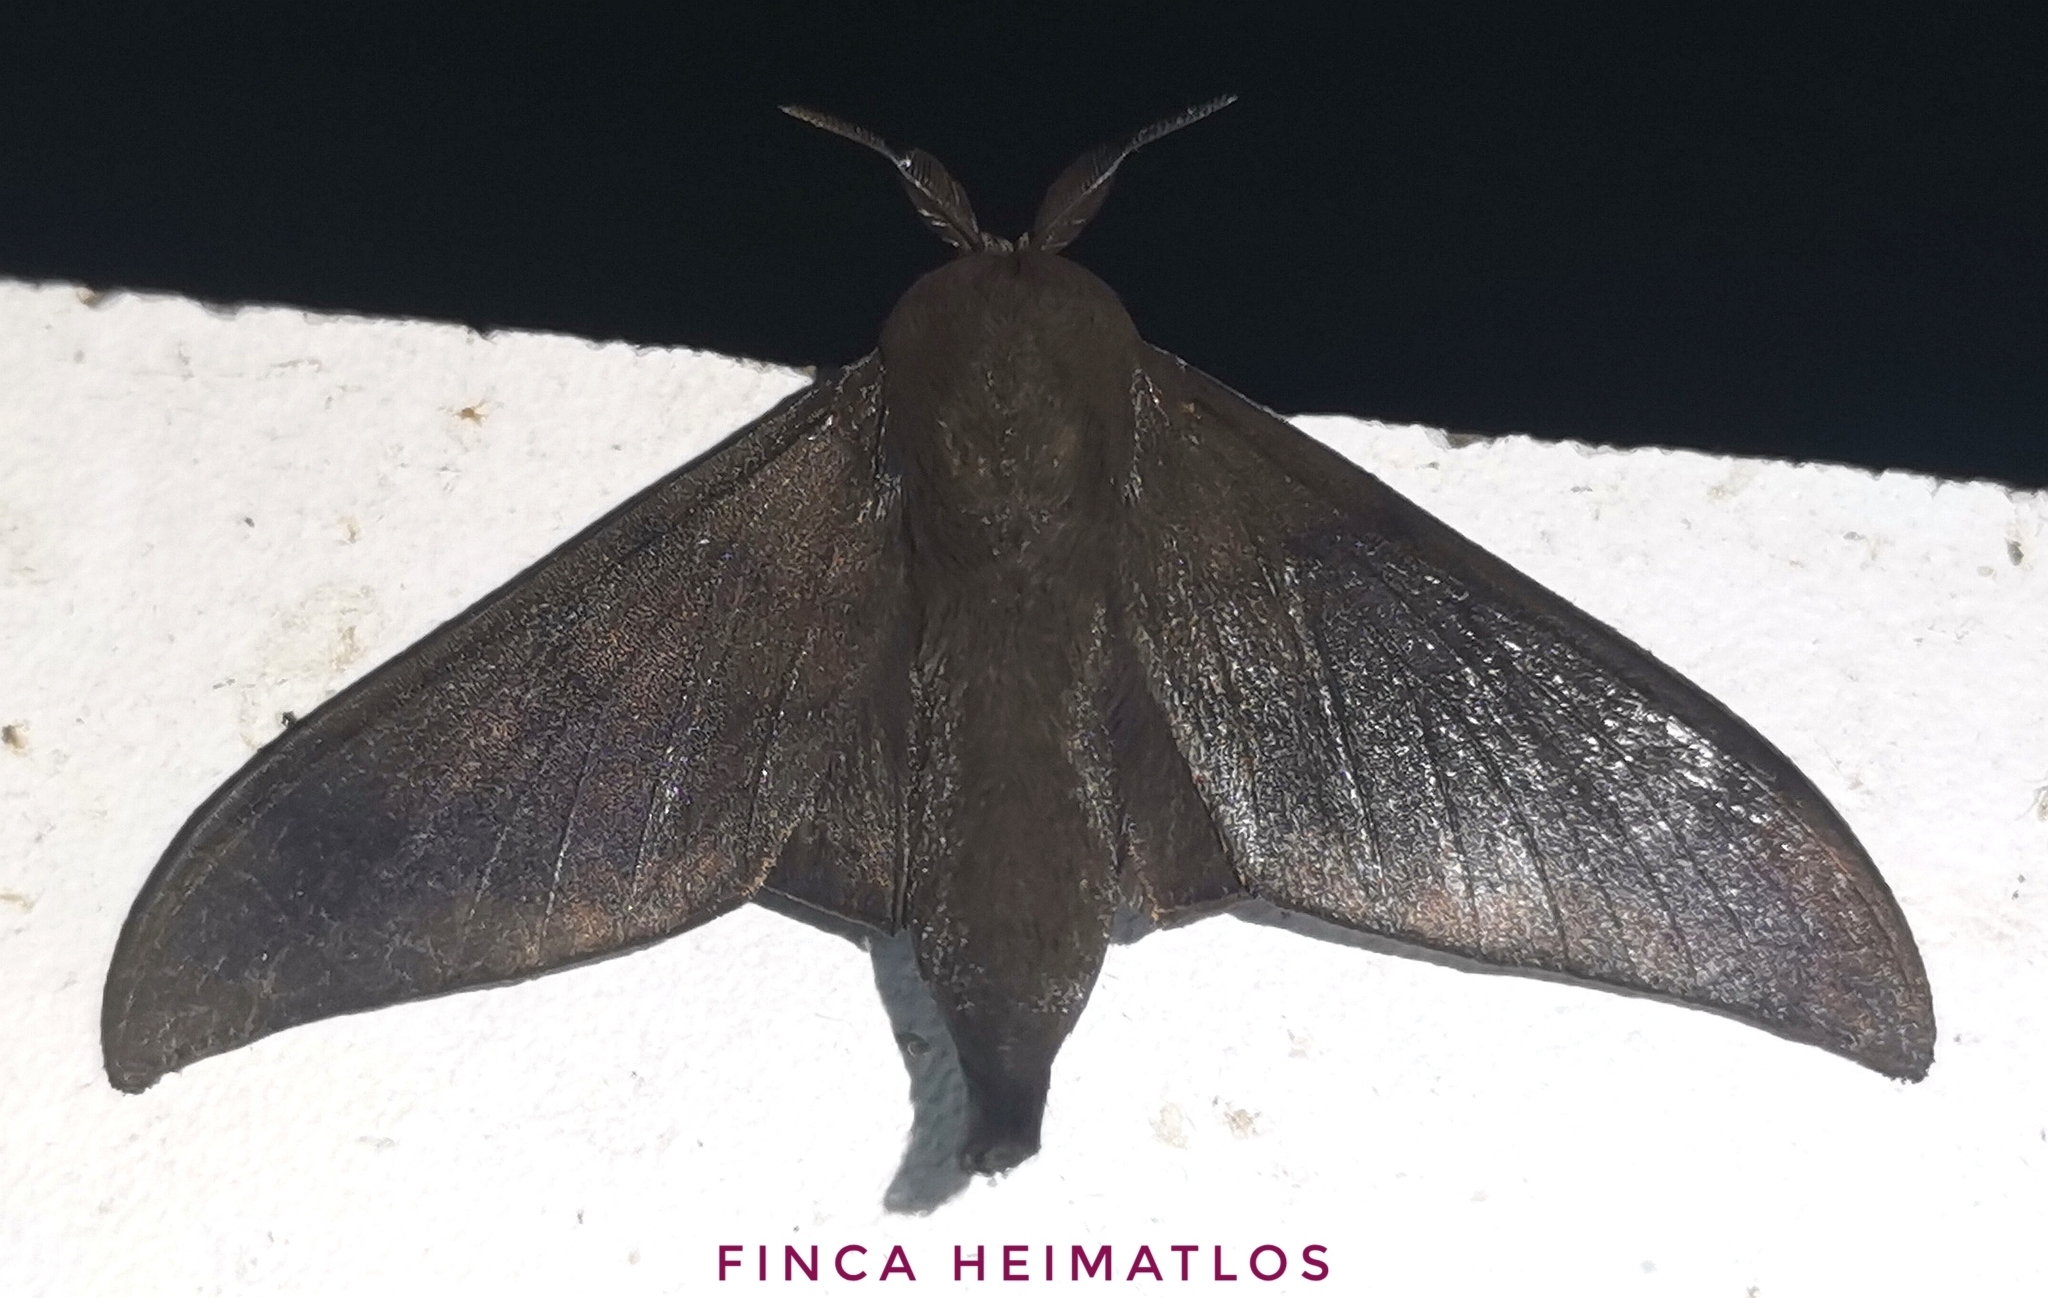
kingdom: Animalia
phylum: Arthropoda
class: Insecta
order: Lepidoptera
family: Mimallonidae
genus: Psychocampa
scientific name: Psychocampa concolor
